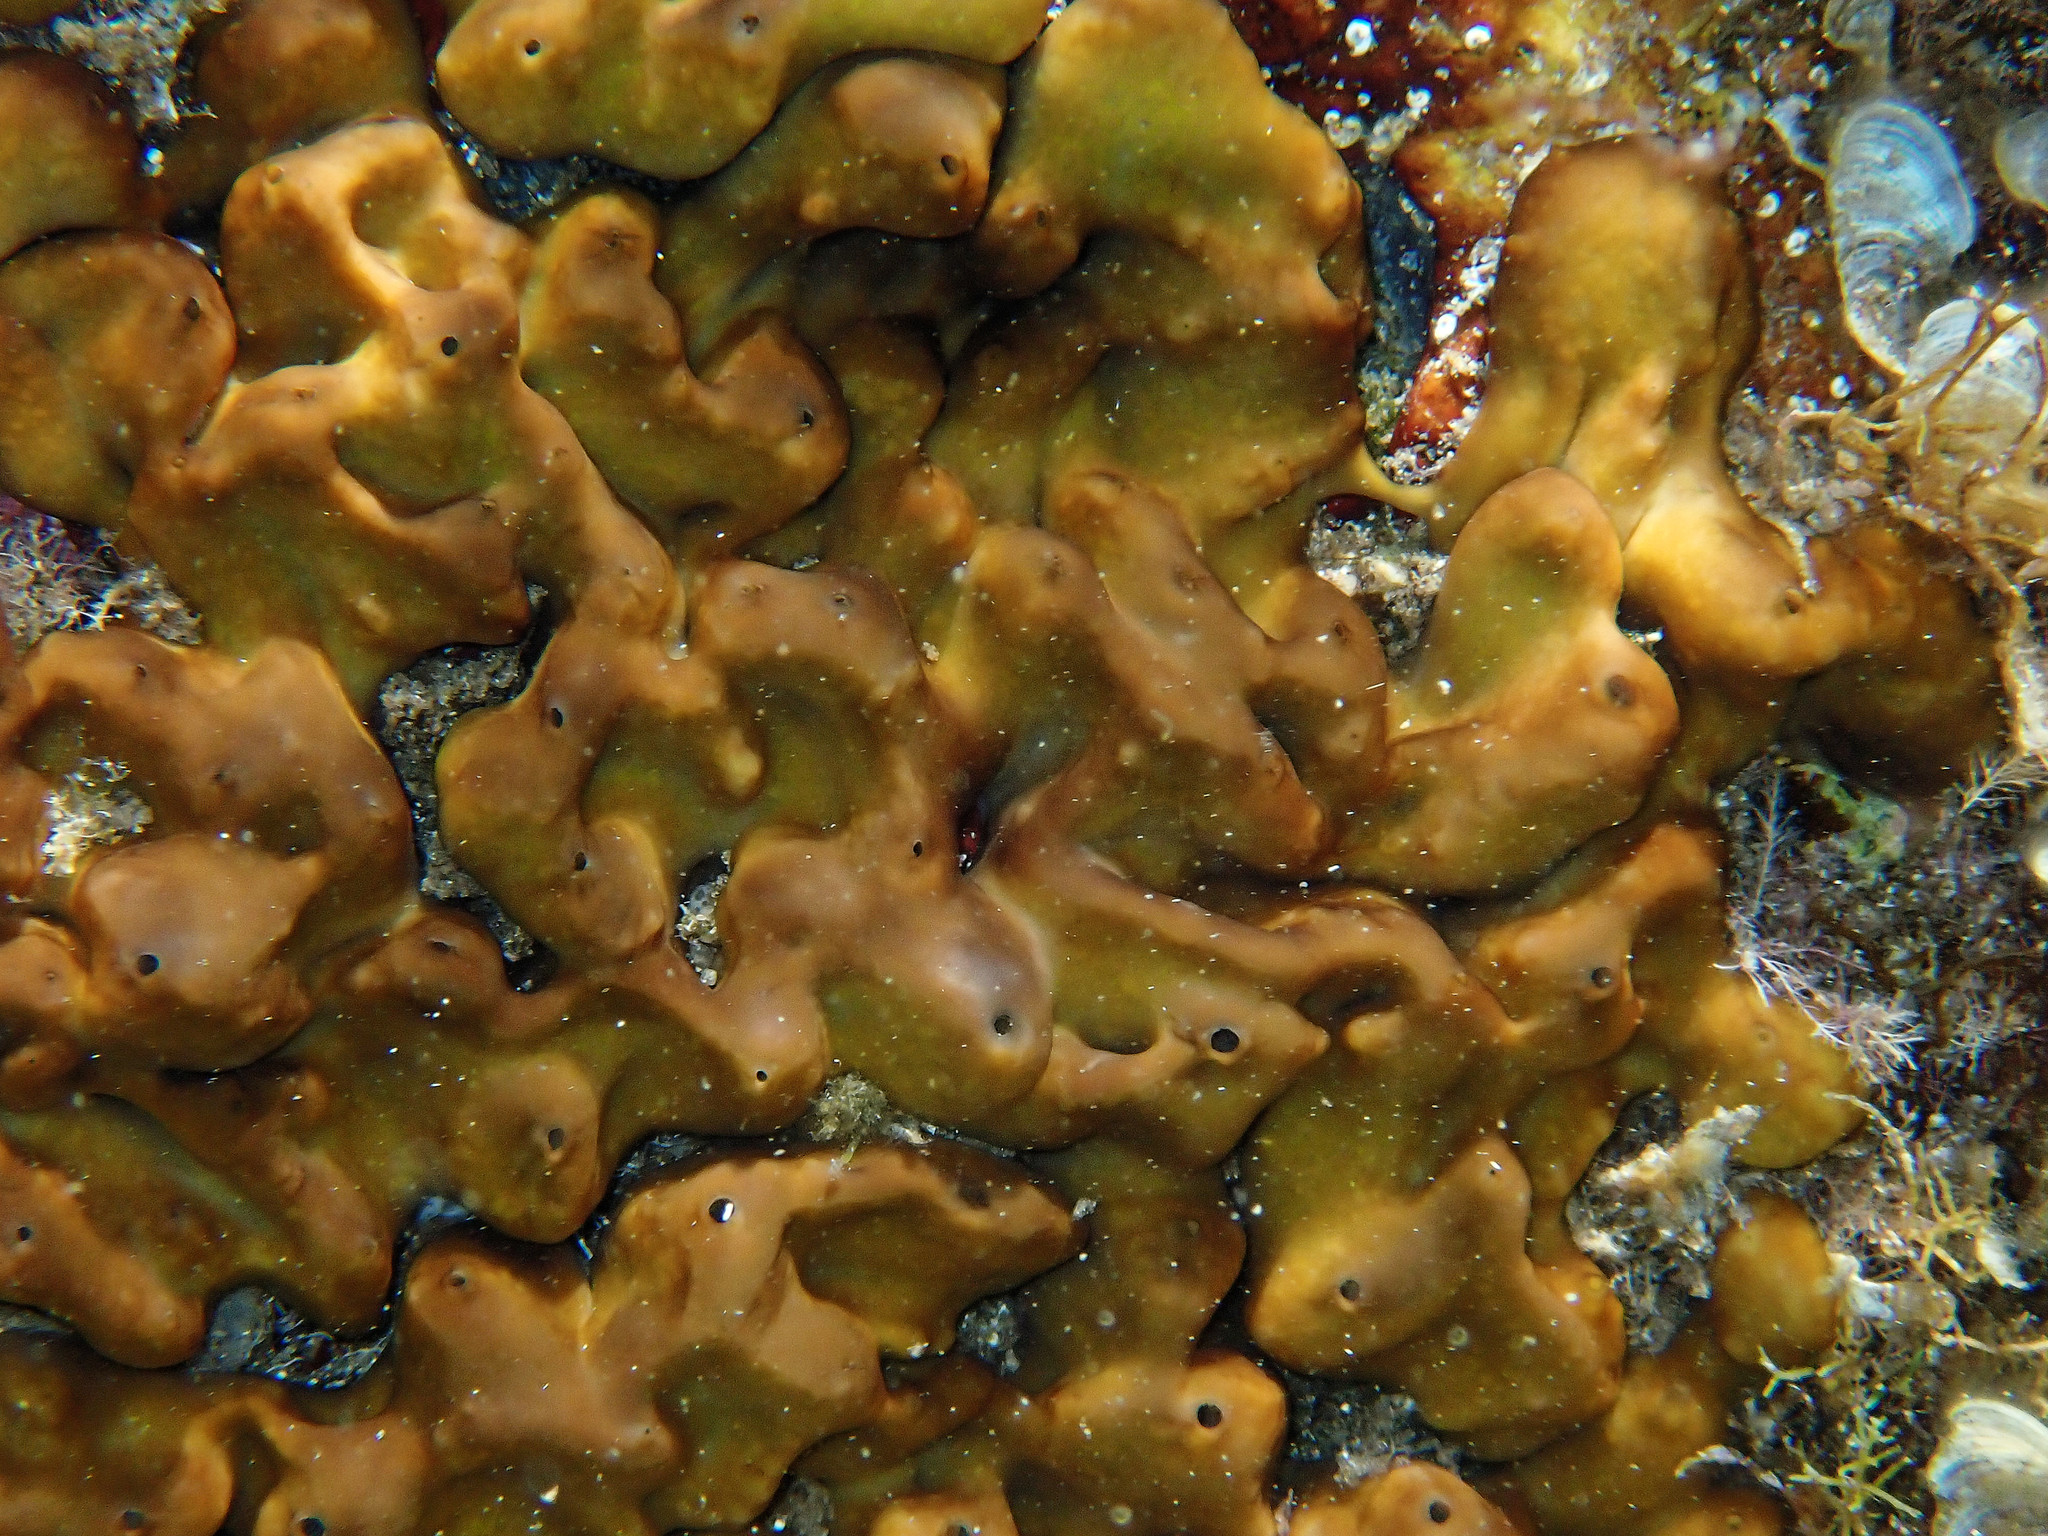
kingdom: Animalia
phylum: Porifera
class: Demospongiae
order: Chondrillida
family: Chondrillidae
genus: Chondrilla
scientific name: Chondrilla nucula
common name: Chicken liver sponge
